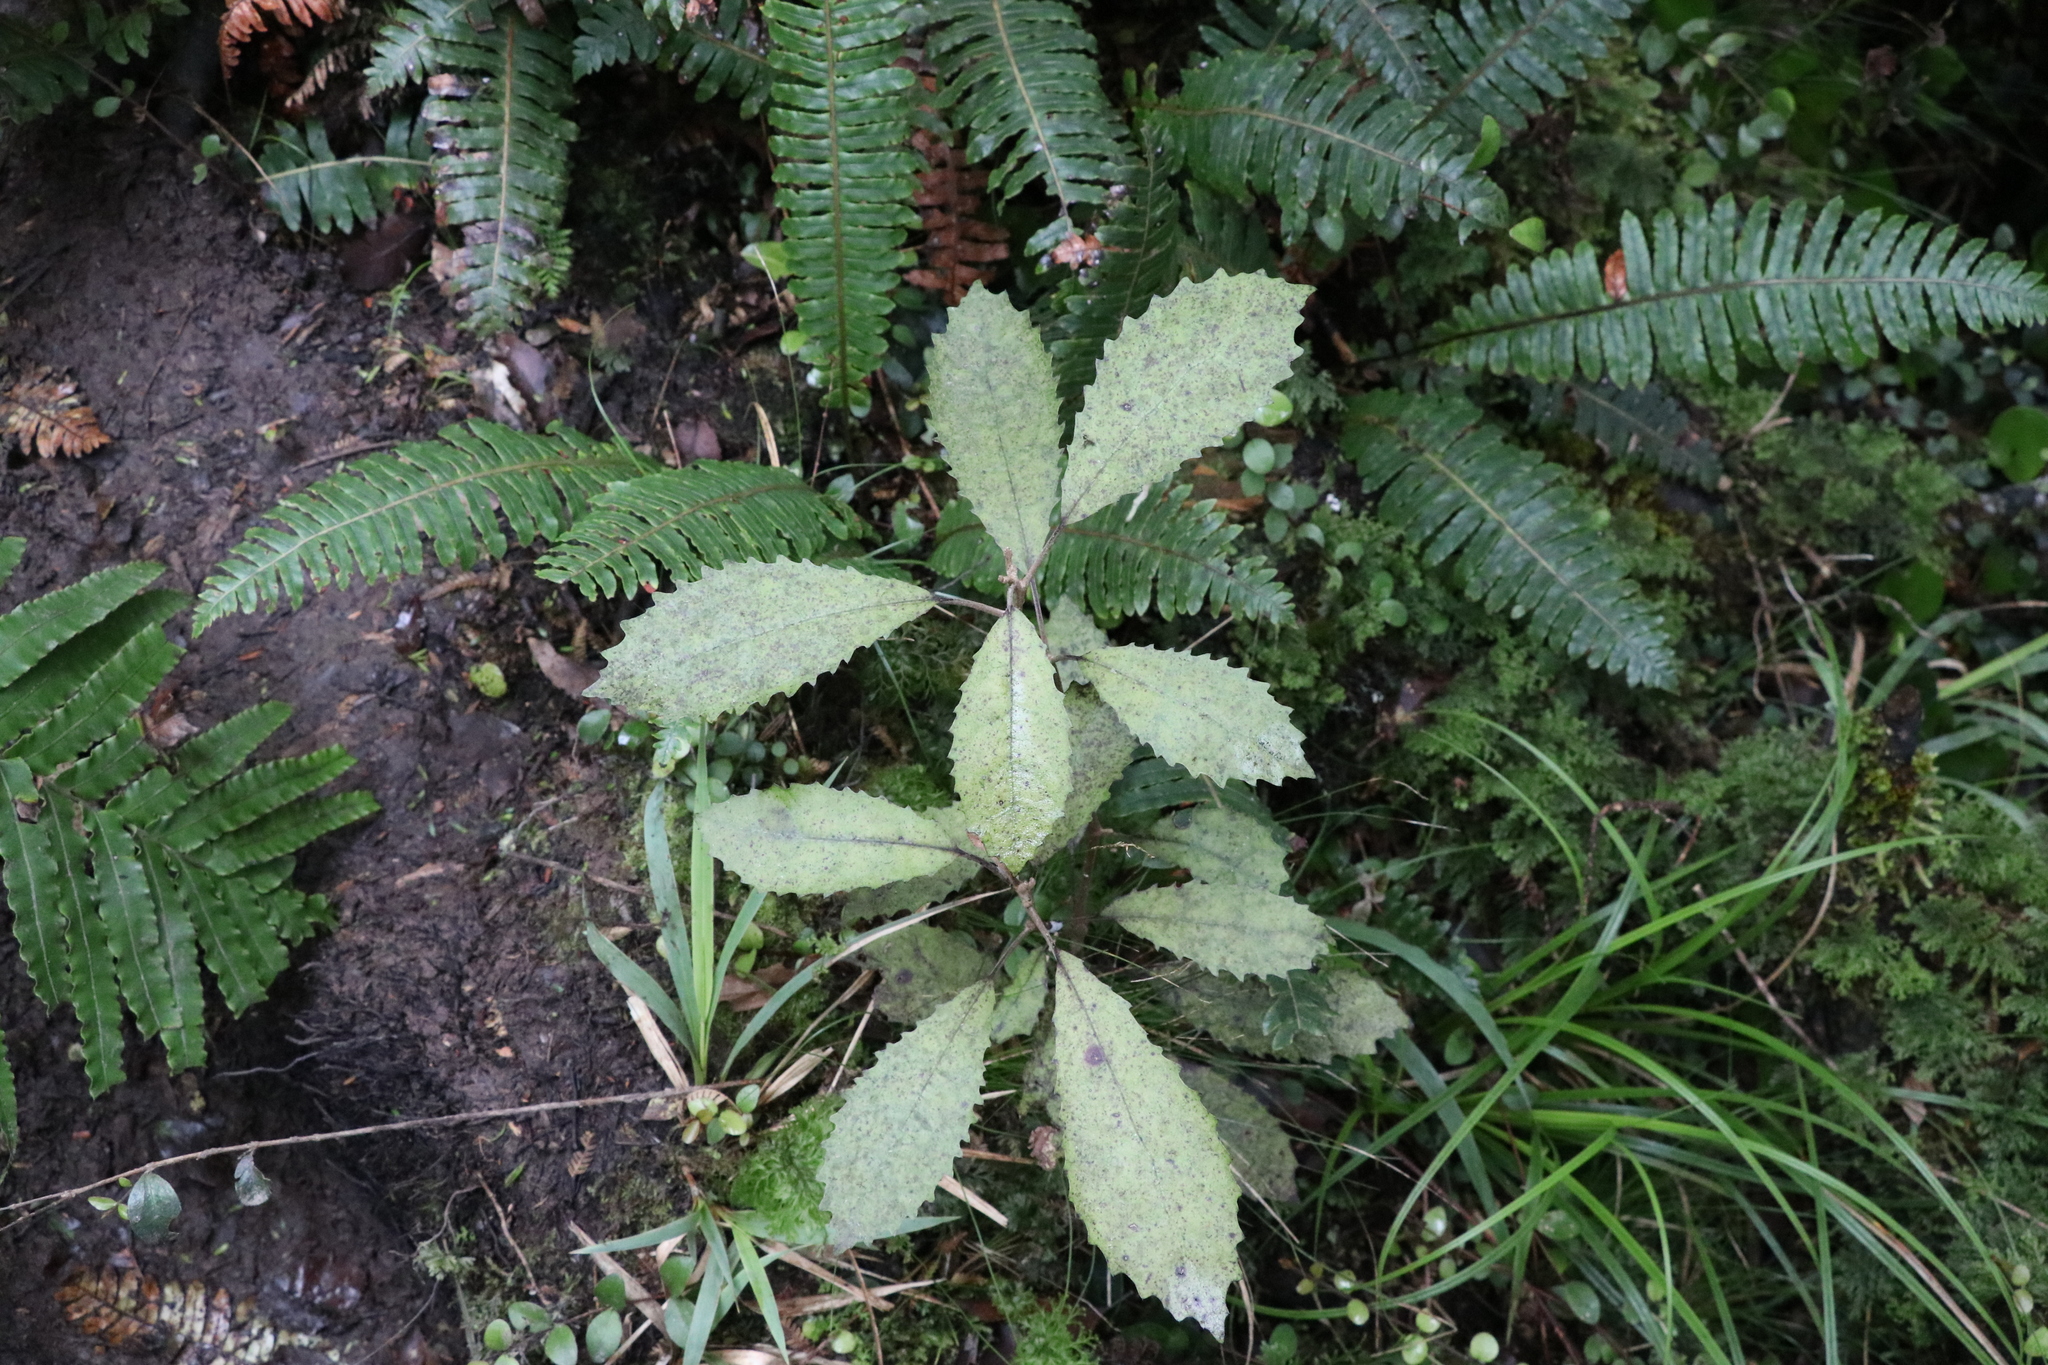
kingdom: Plantae
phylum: Tracheophyta
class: Magnoliopsida
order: Asterales
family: Asteraceae
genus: Olearia
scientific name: Olearia rani
